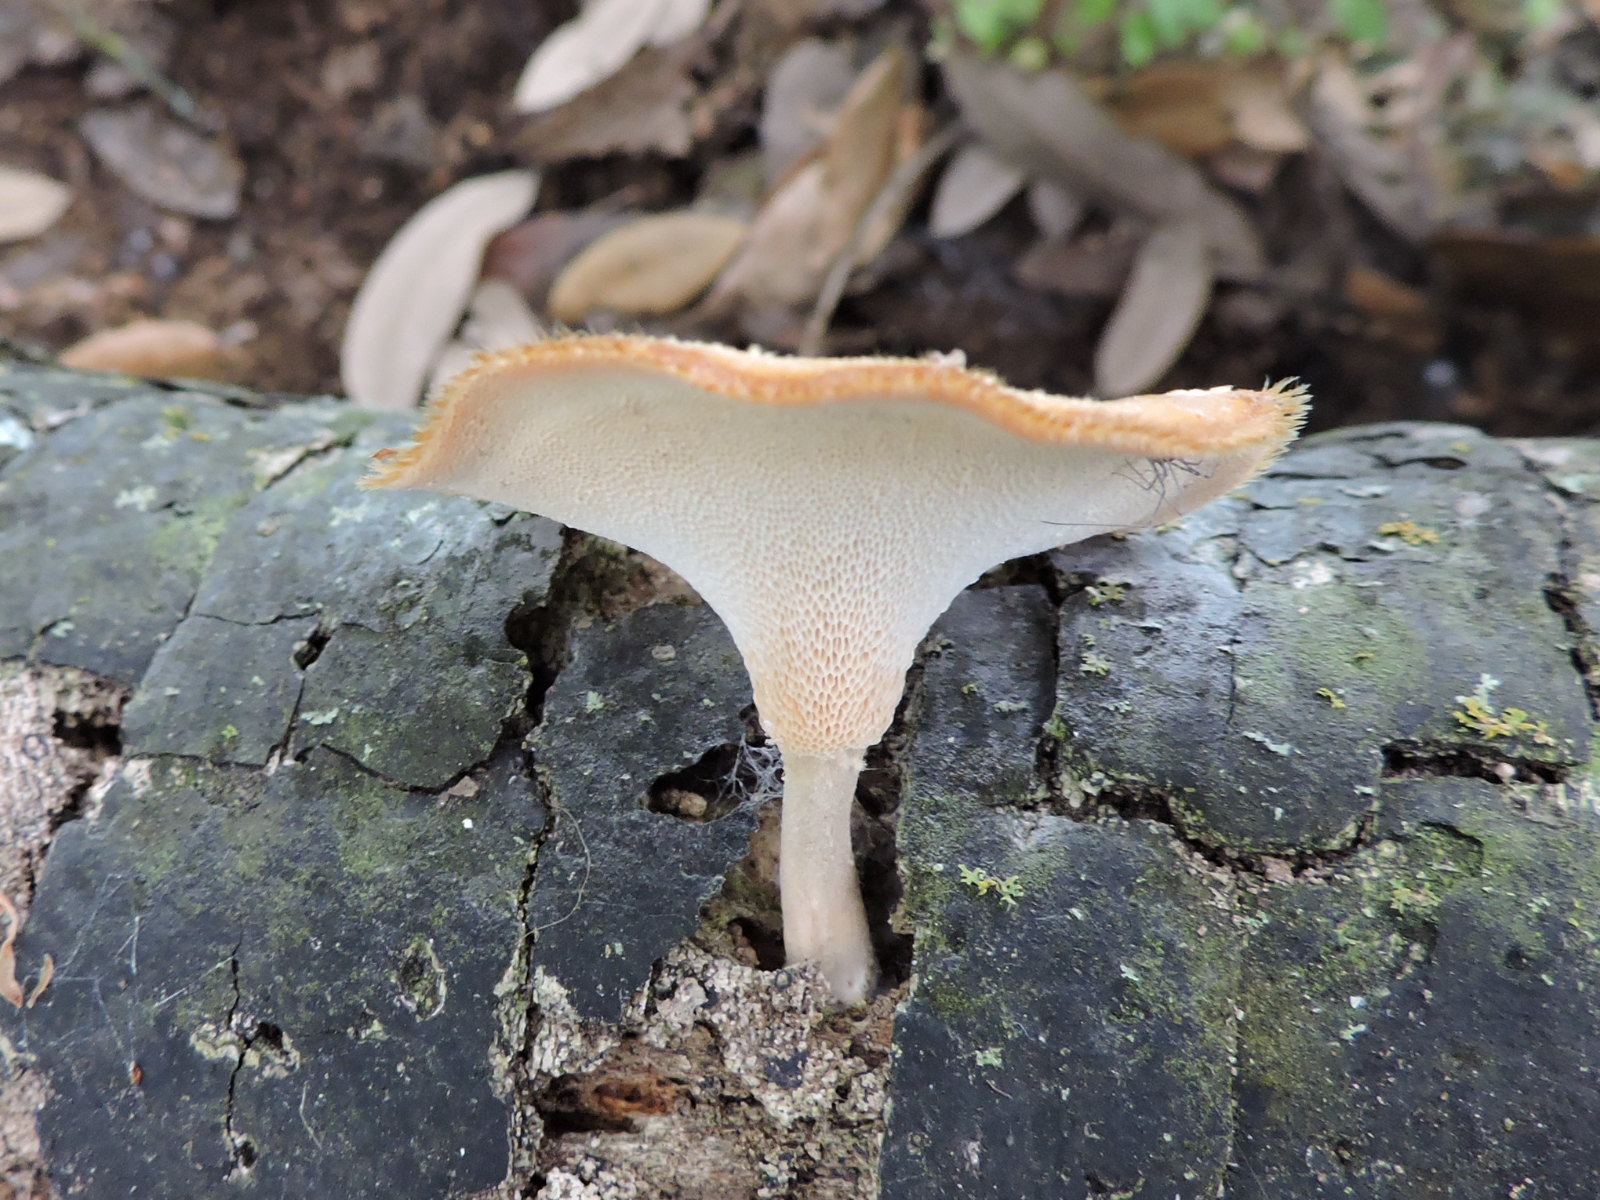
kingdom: Fungi
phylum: Basidiomycota
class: Agaricomycetes
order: Polyporales
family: Polyporaceae
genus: Lentinus
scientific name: Lentinus flexipes
